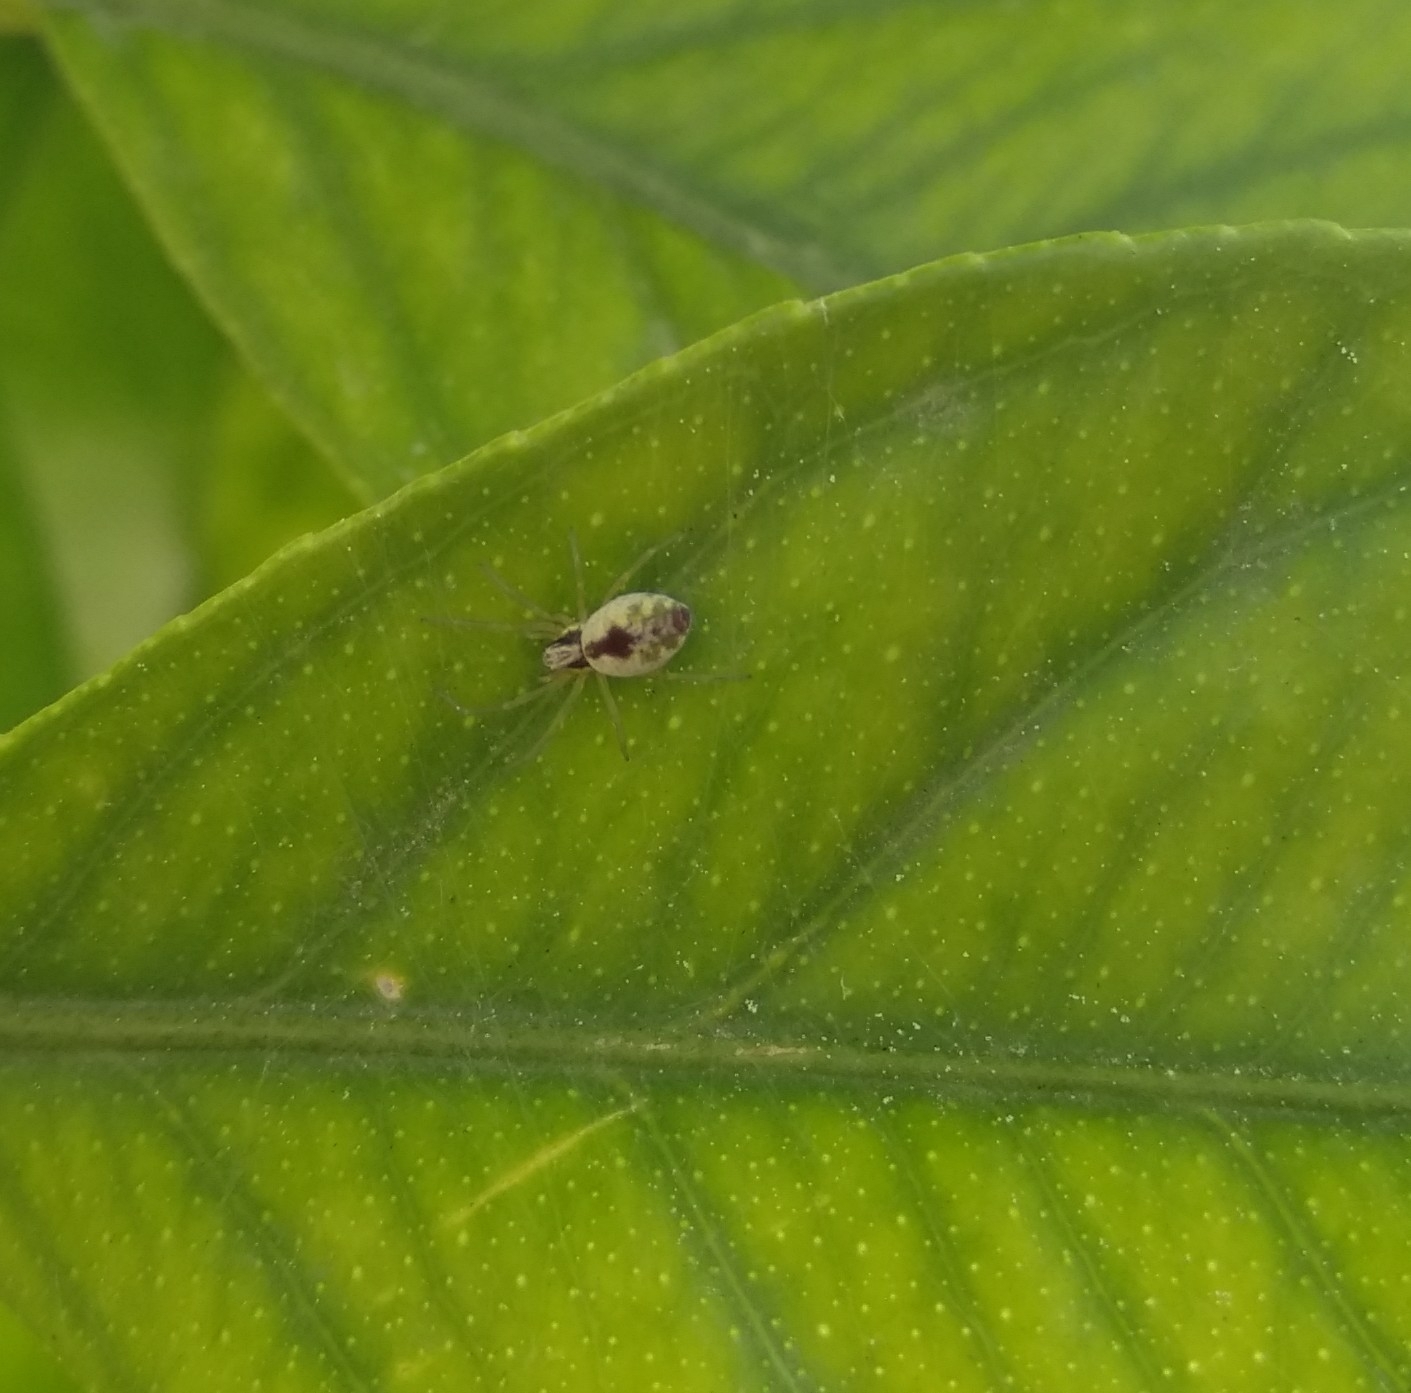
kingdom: Animalia
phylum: Arthropoda
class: Arachnida
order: Araneae
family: Dictynidae
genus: Nigma
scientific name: Nigma puella
